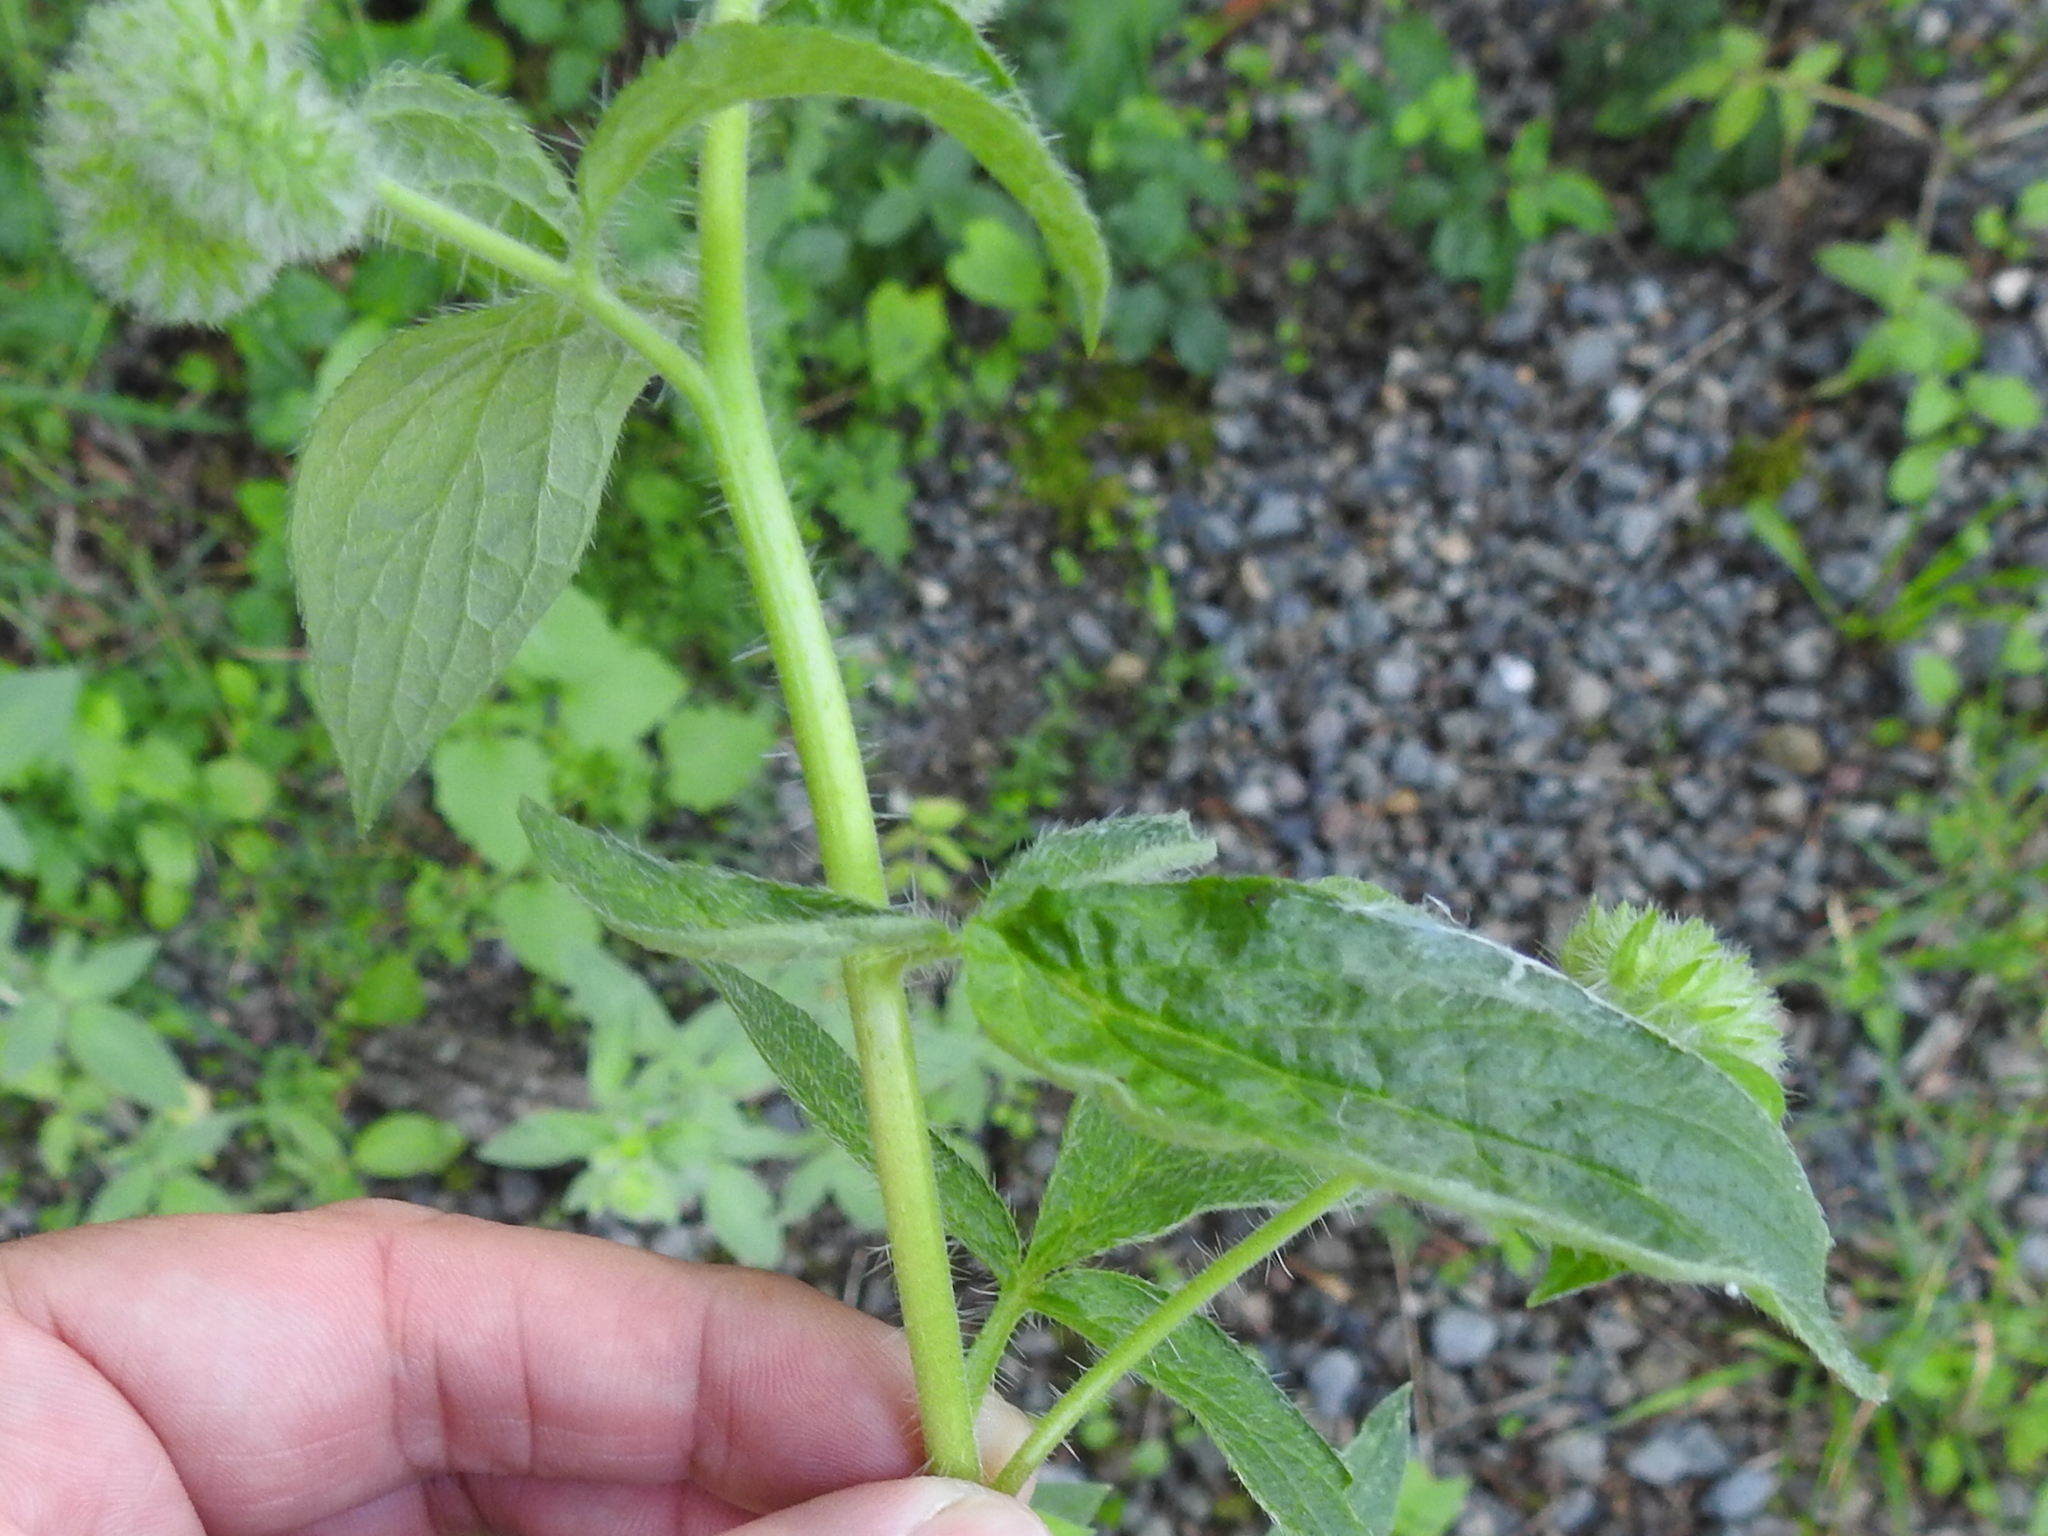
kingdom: Plantae
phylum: Tracheophyta
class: Magnoliopsida
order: Boraginales
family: Hydrophyllaceae
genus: Phacelia
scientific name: Phacelia nemoralis
